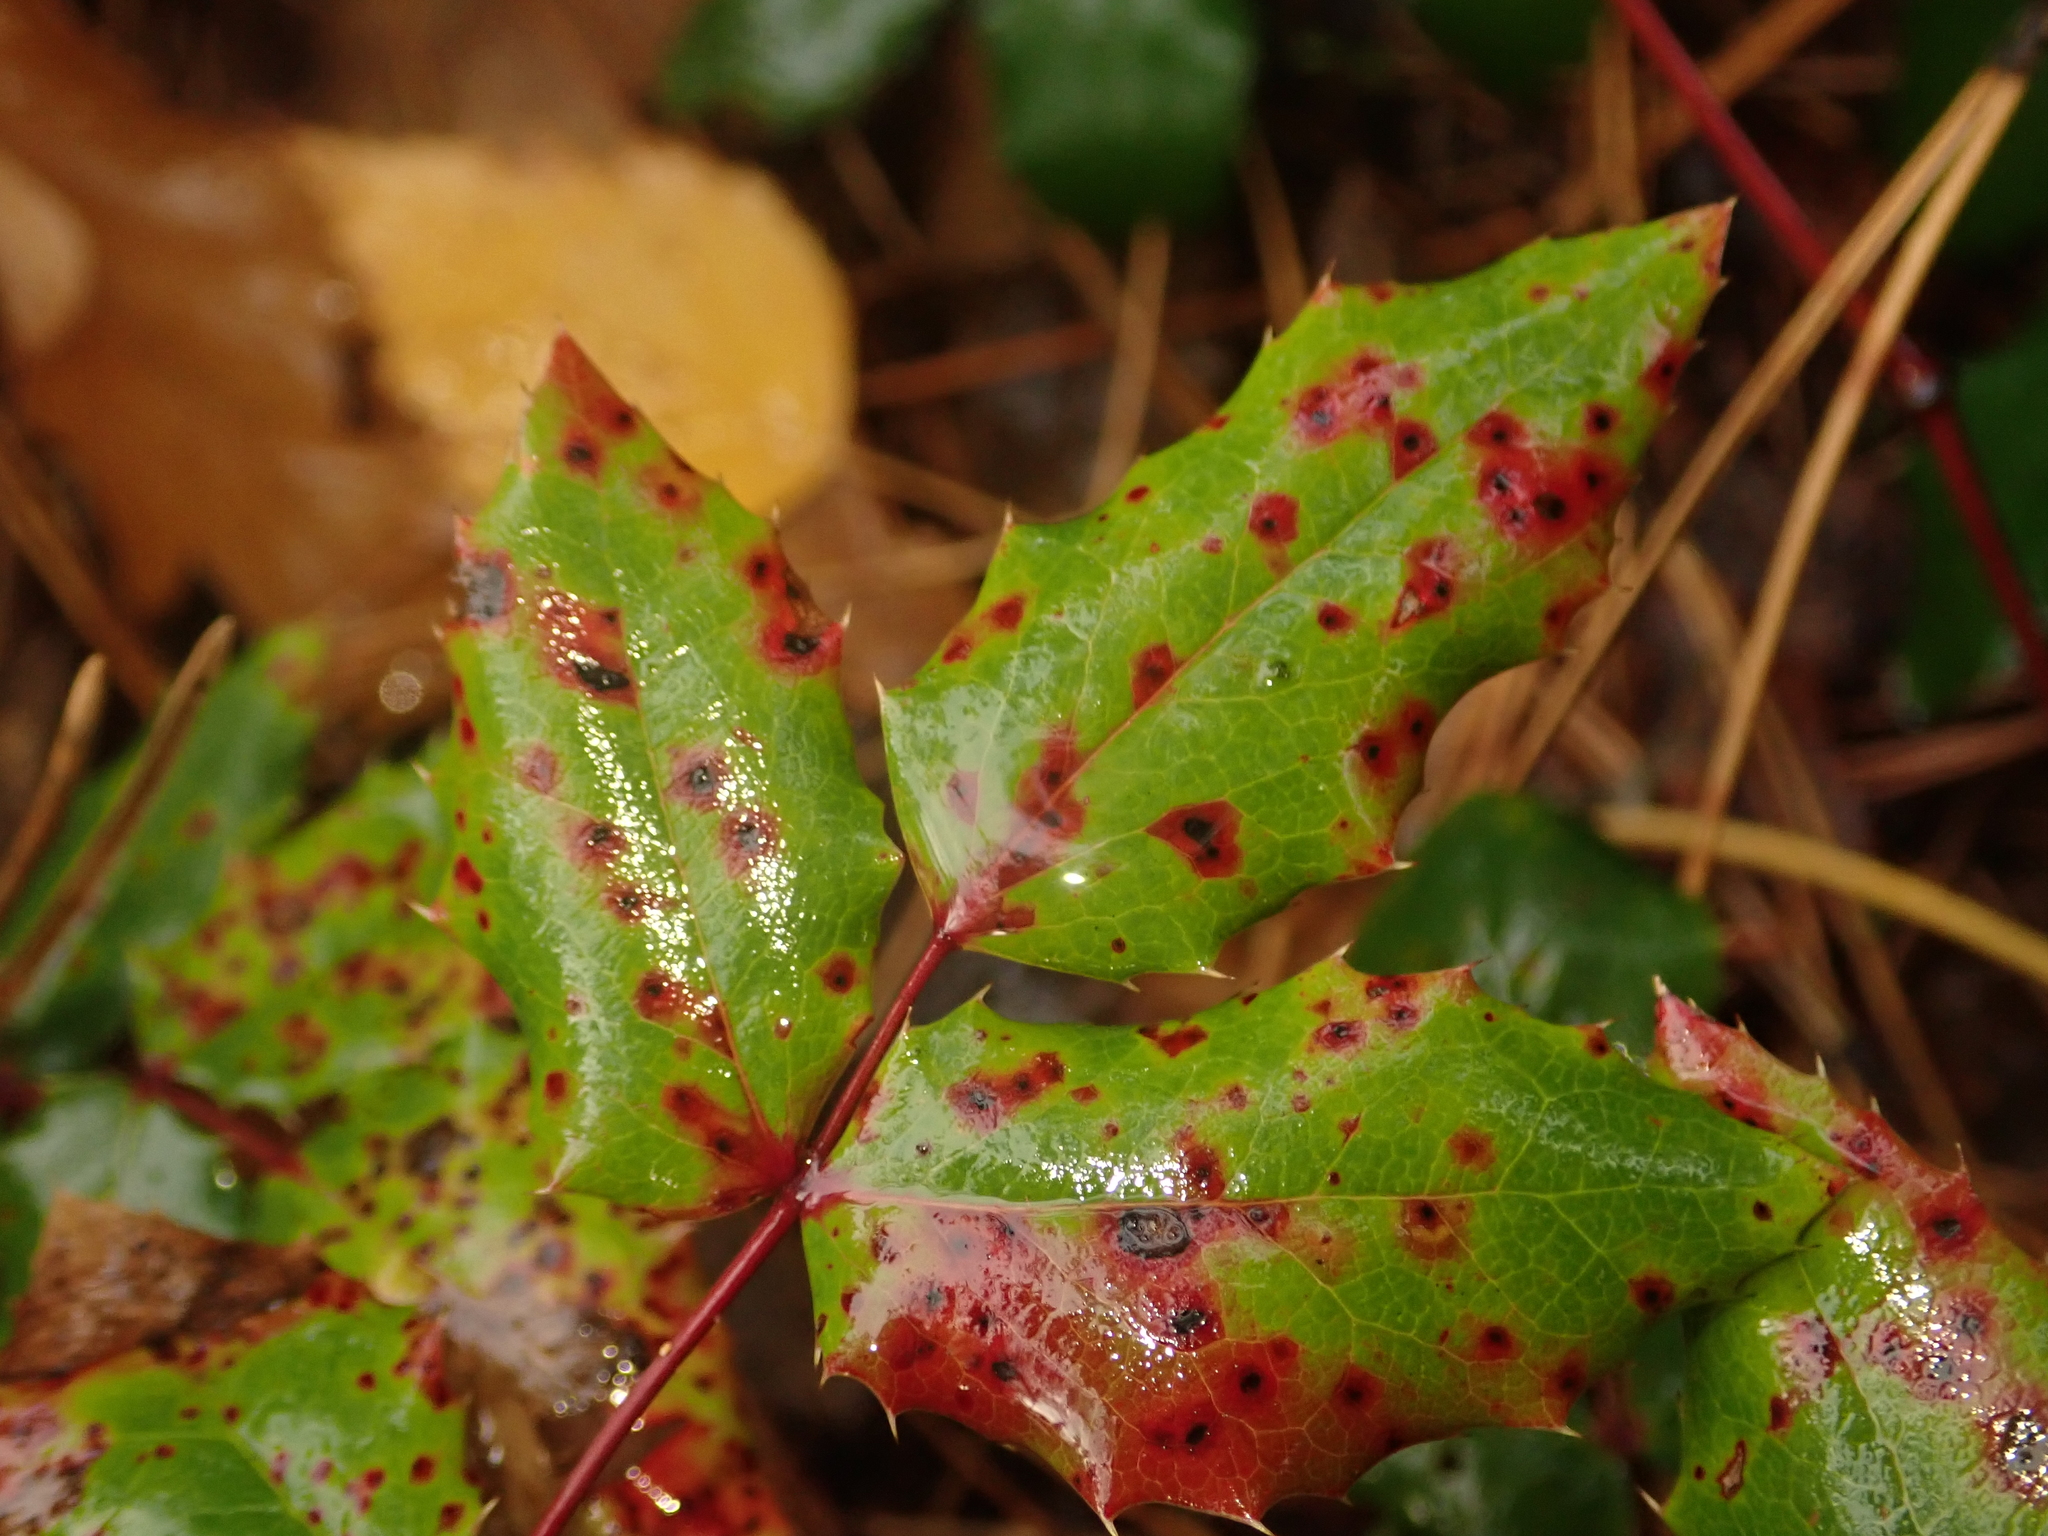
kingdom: Fungi
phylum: Basidiomycota
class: Pucciniomycetes
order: Pucciniales
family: Pucciniaceae
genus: Cumminsiella
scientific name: Cumminsiella mirabilissima
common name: Mahonia rust
